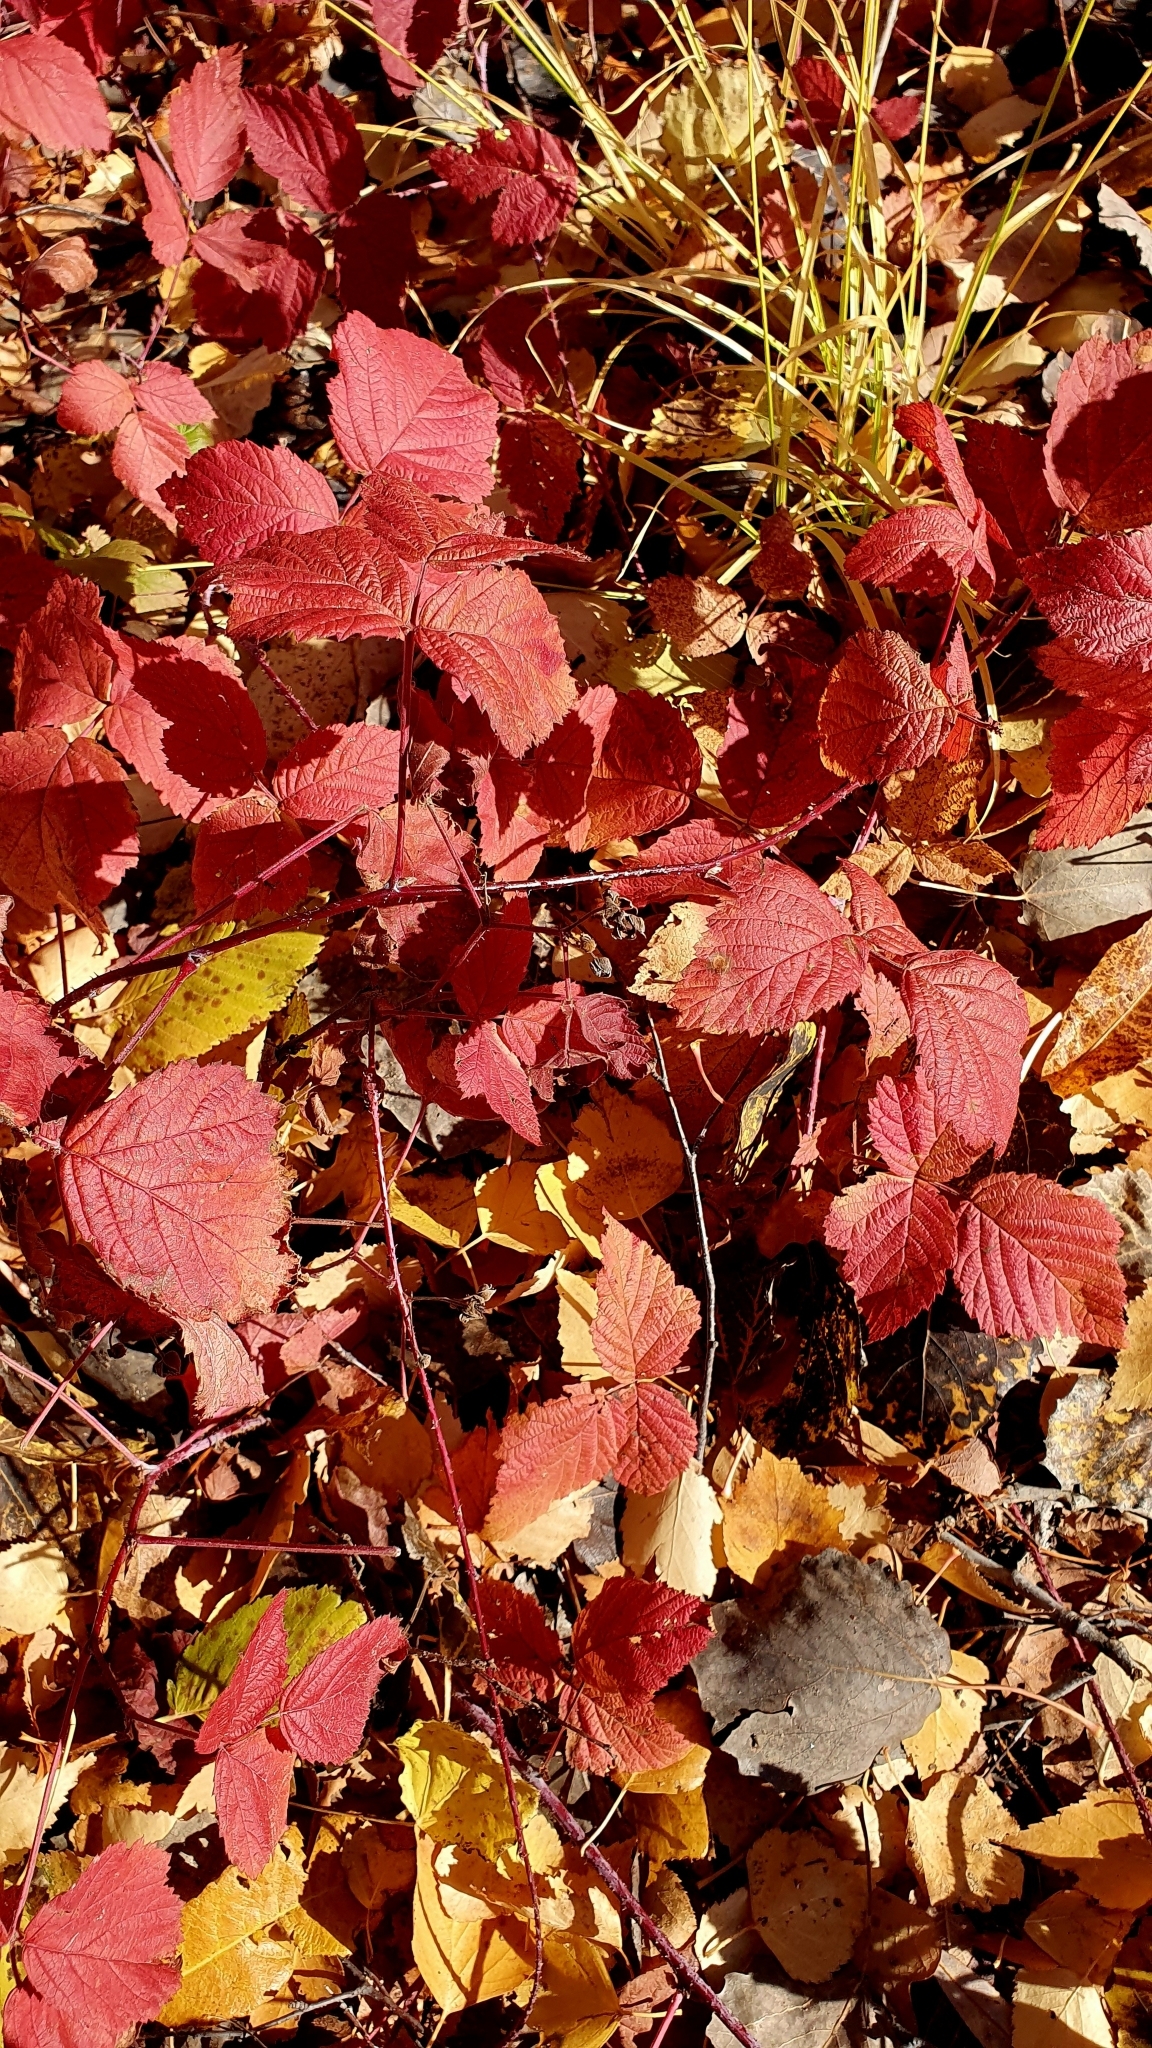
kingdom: Plantae
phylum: Tracheophyta
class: Magnoliopsida
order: Rosales
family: Rosaceae
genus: Rubus
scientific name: Rubus caesius
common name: Dewberry
